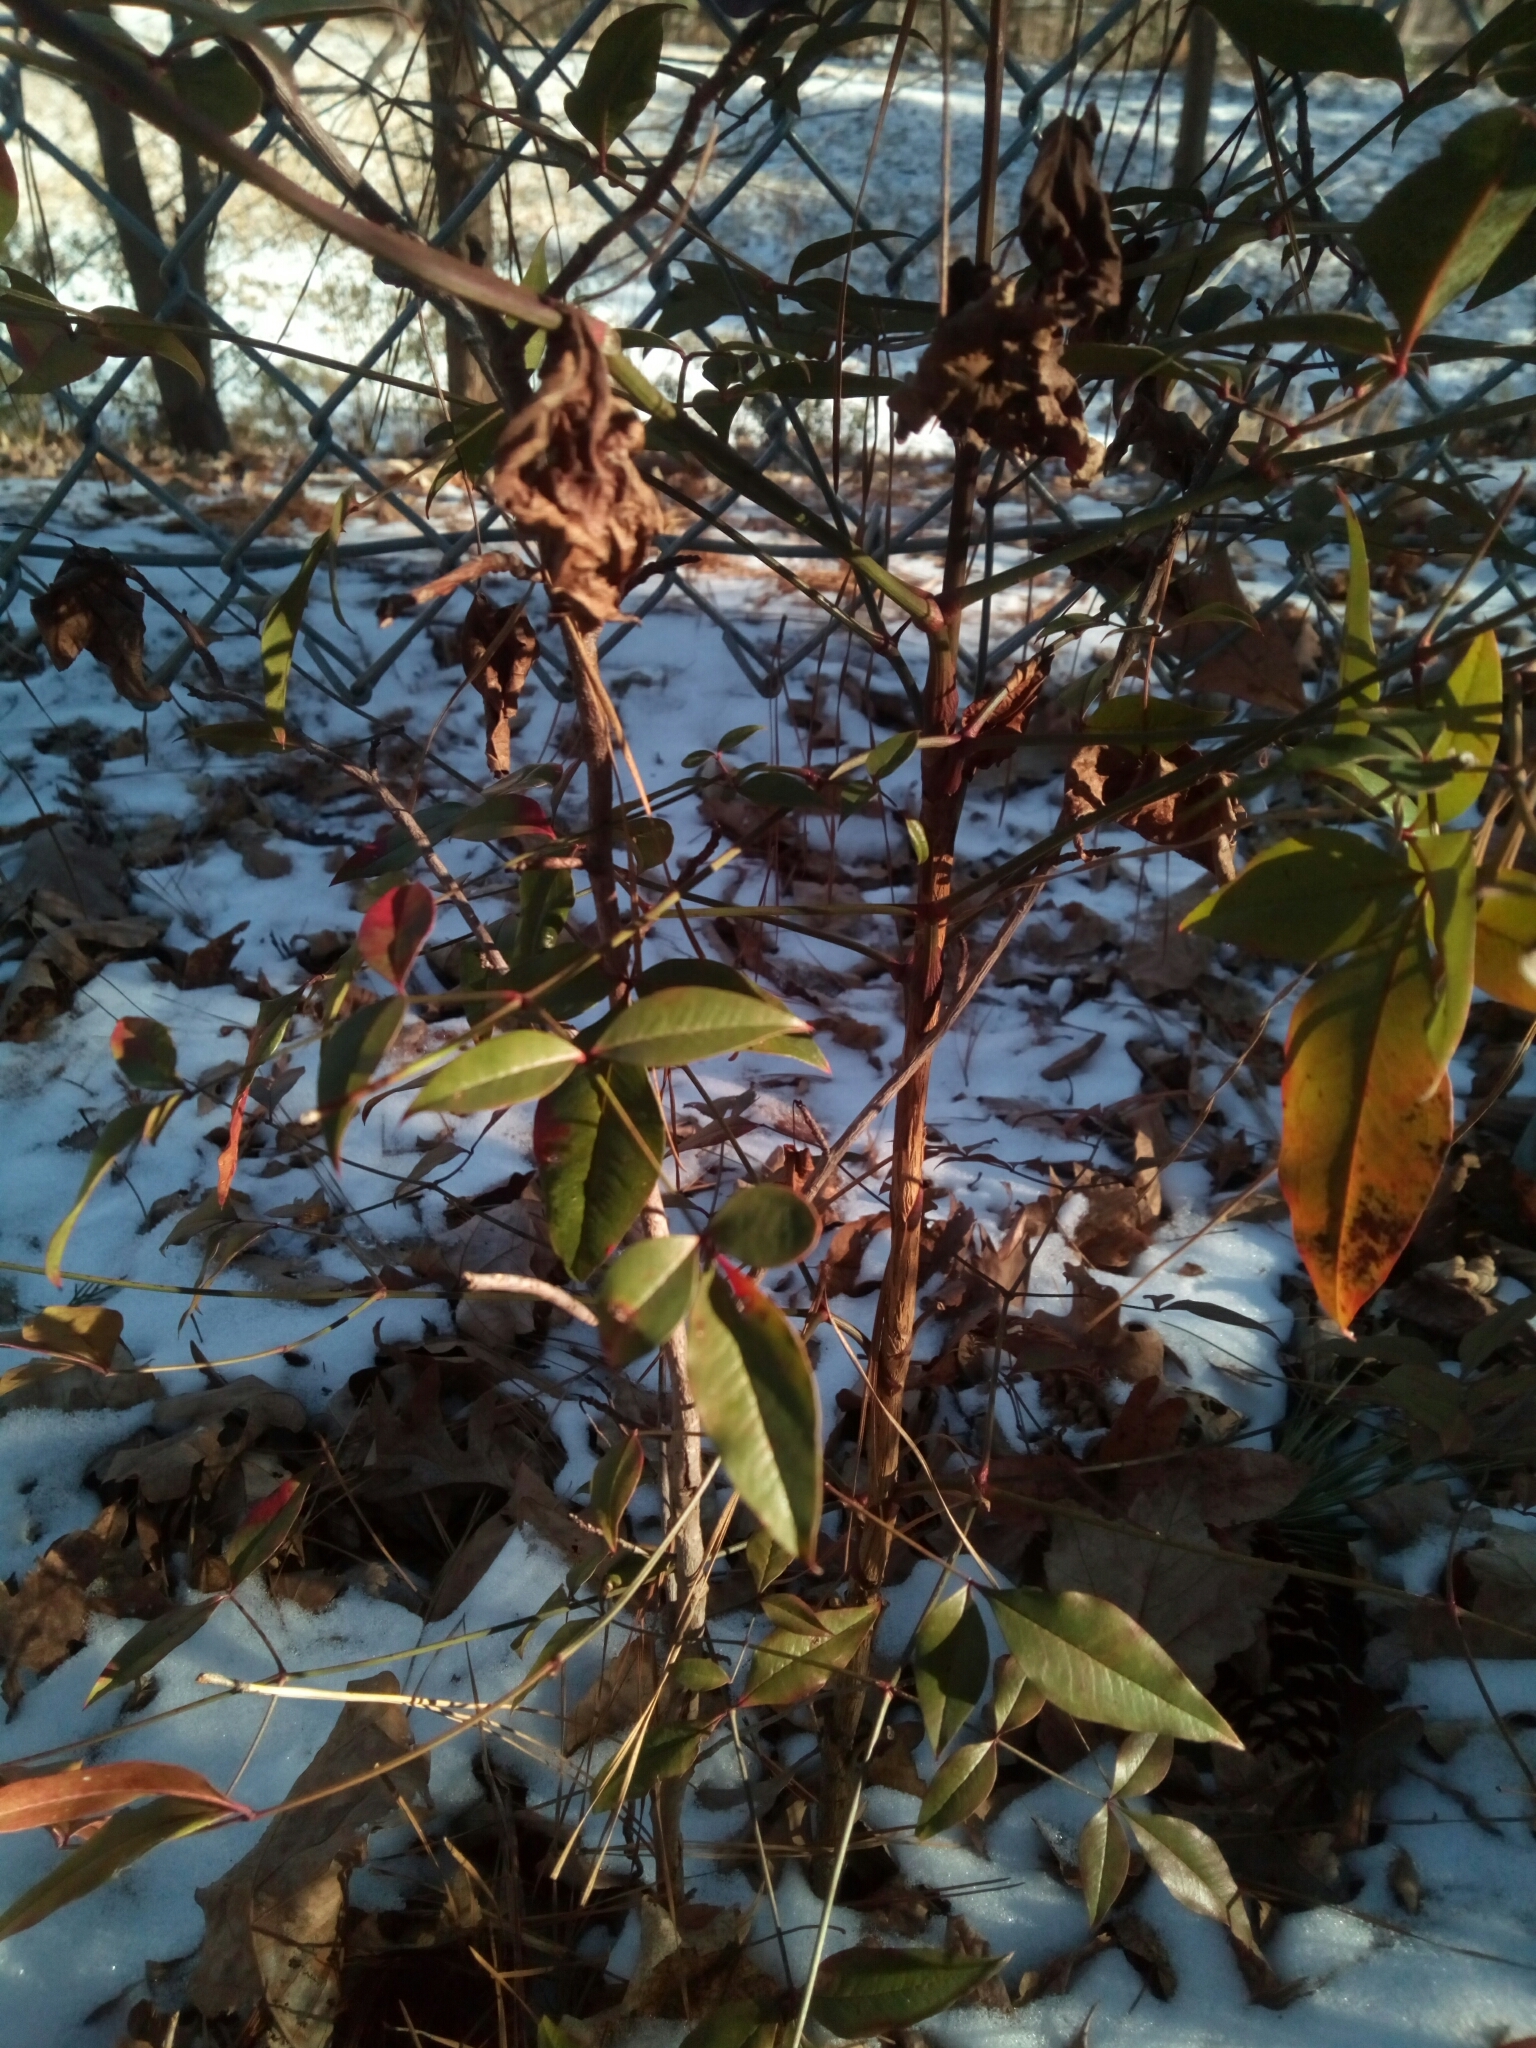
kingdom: Plantae
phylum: Tracheophyta
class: Magnoliopsida
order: Ranunculales
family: Berberidaceae
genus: Nandina
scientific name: Nandina domestica
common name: Sacred bamboo
